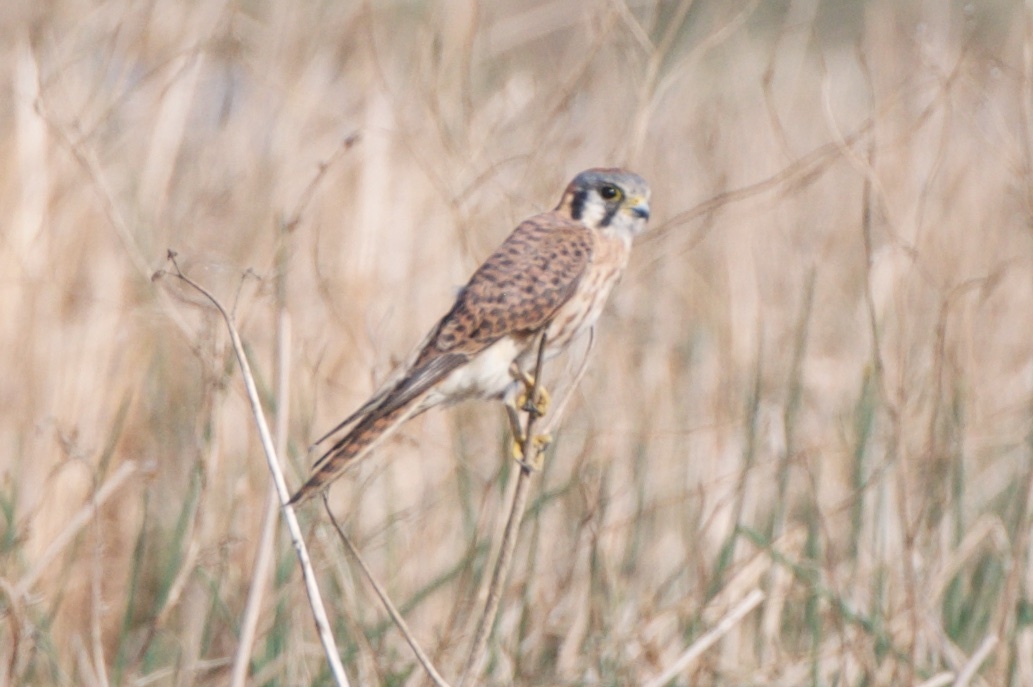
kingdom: Animalia
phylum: Chordata
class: Aves
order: Falconiformes
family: Falconidae
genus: Falco
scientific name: Falco sparverius
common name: American kestrel
